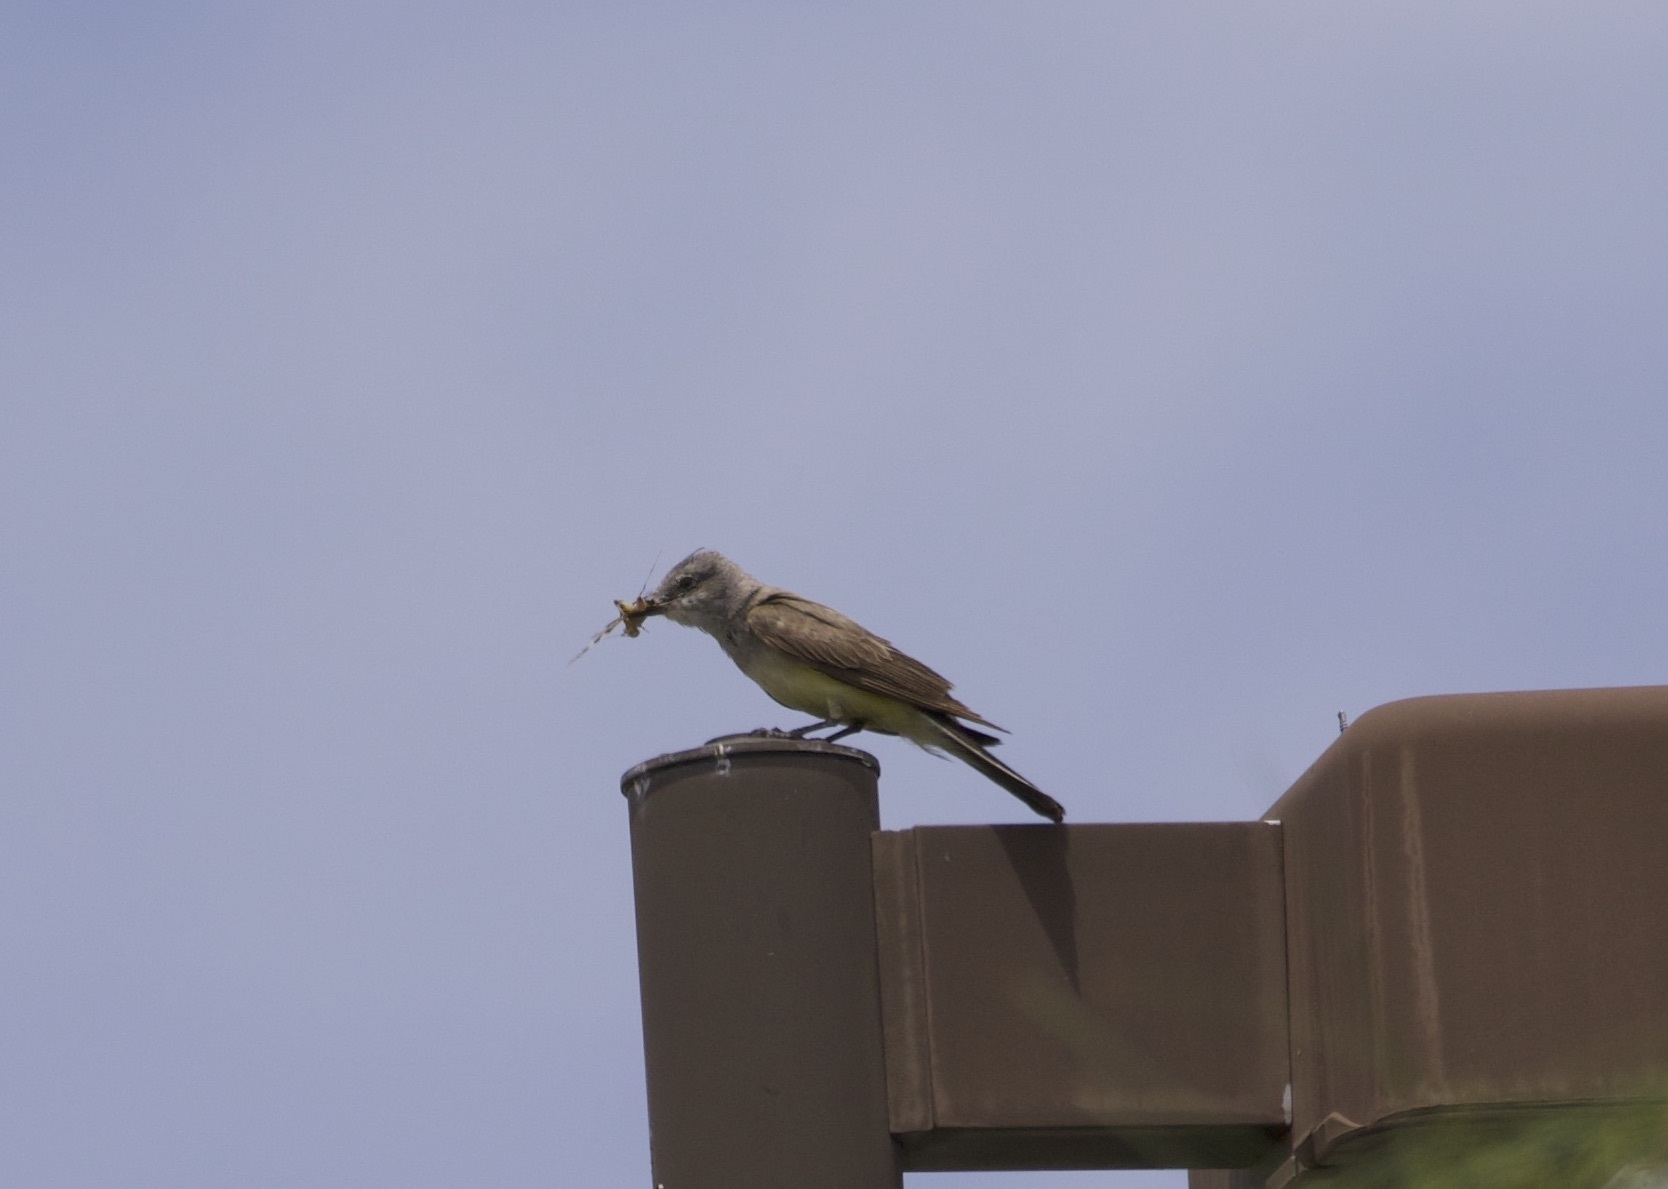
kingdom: Animalia
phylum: Chordata
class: Aves
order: Passeriformes
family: Tyrannidae
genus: Tyrannus
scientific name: Tyrannus verticalis
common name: Western kingbird
